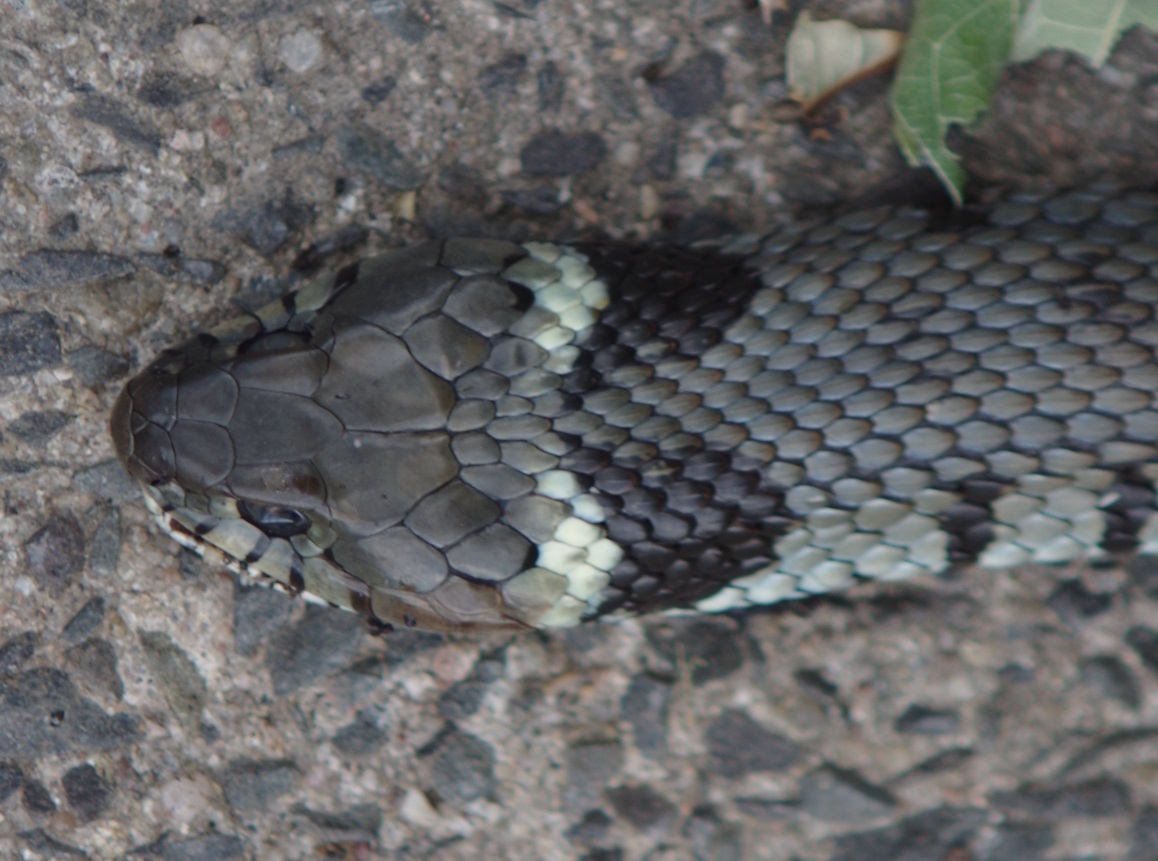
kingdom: Animalia
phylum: Chordata
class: Squamata
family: Colubridae
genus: Natrix
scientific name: Natrix helvetica
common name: Banded grass snake
